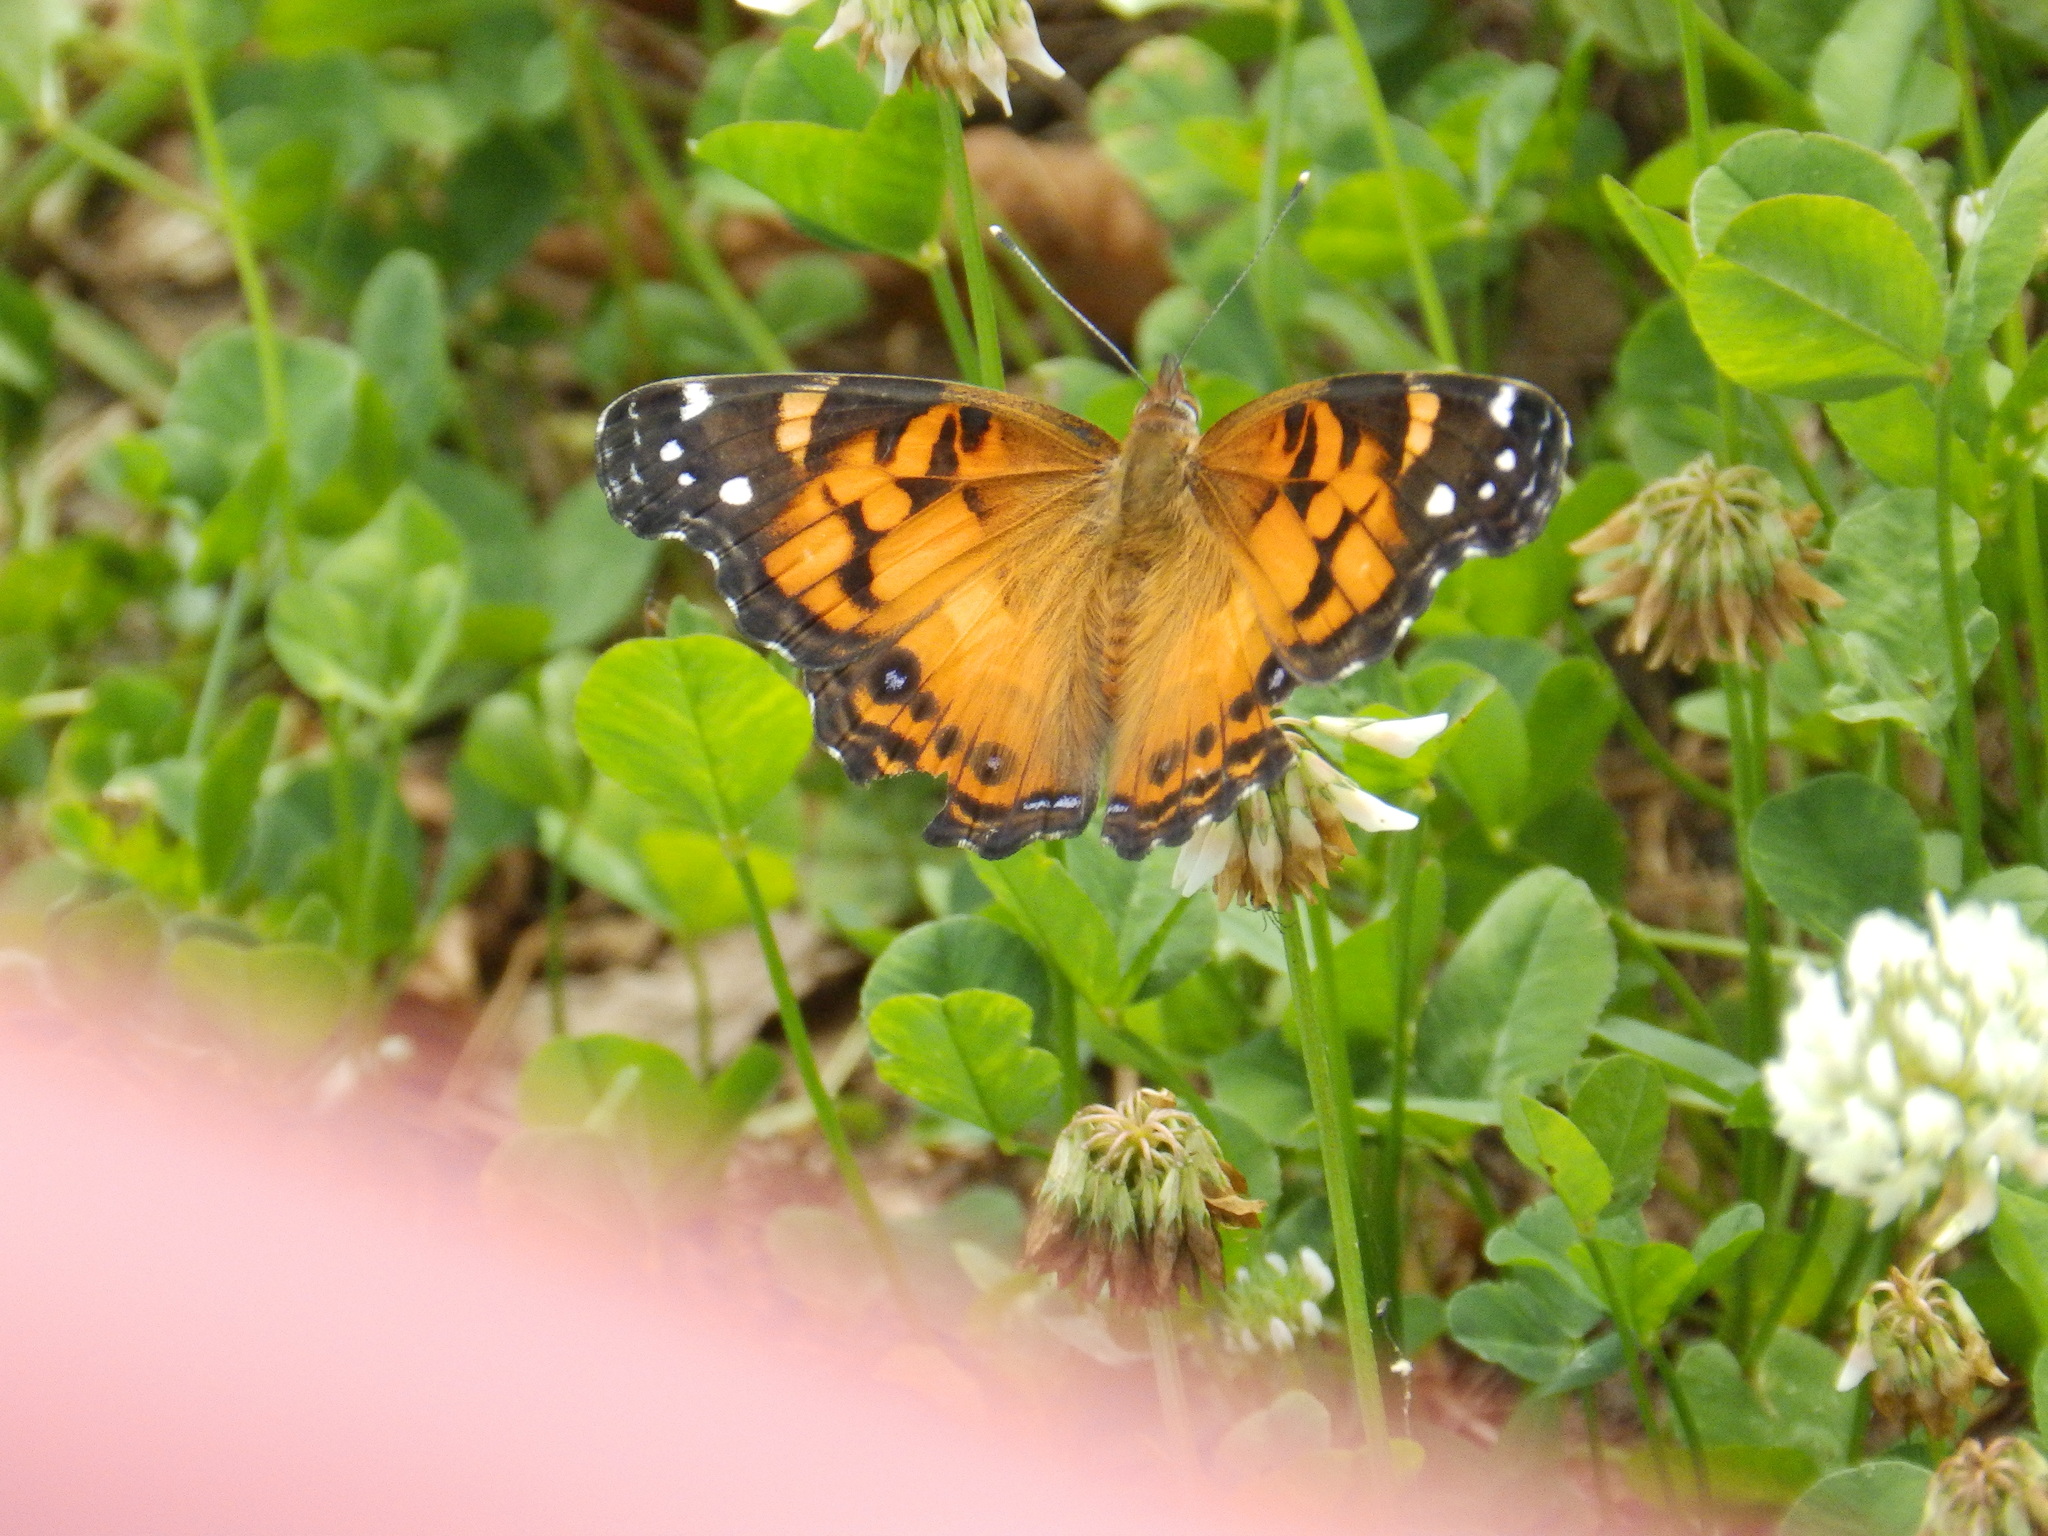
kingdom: Animalia
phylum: Arthropoda
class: Insecta
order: Lepidoptera
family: Nymphalidae
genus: Vanessa
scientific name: Vanessa virginiensis
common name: American lady
